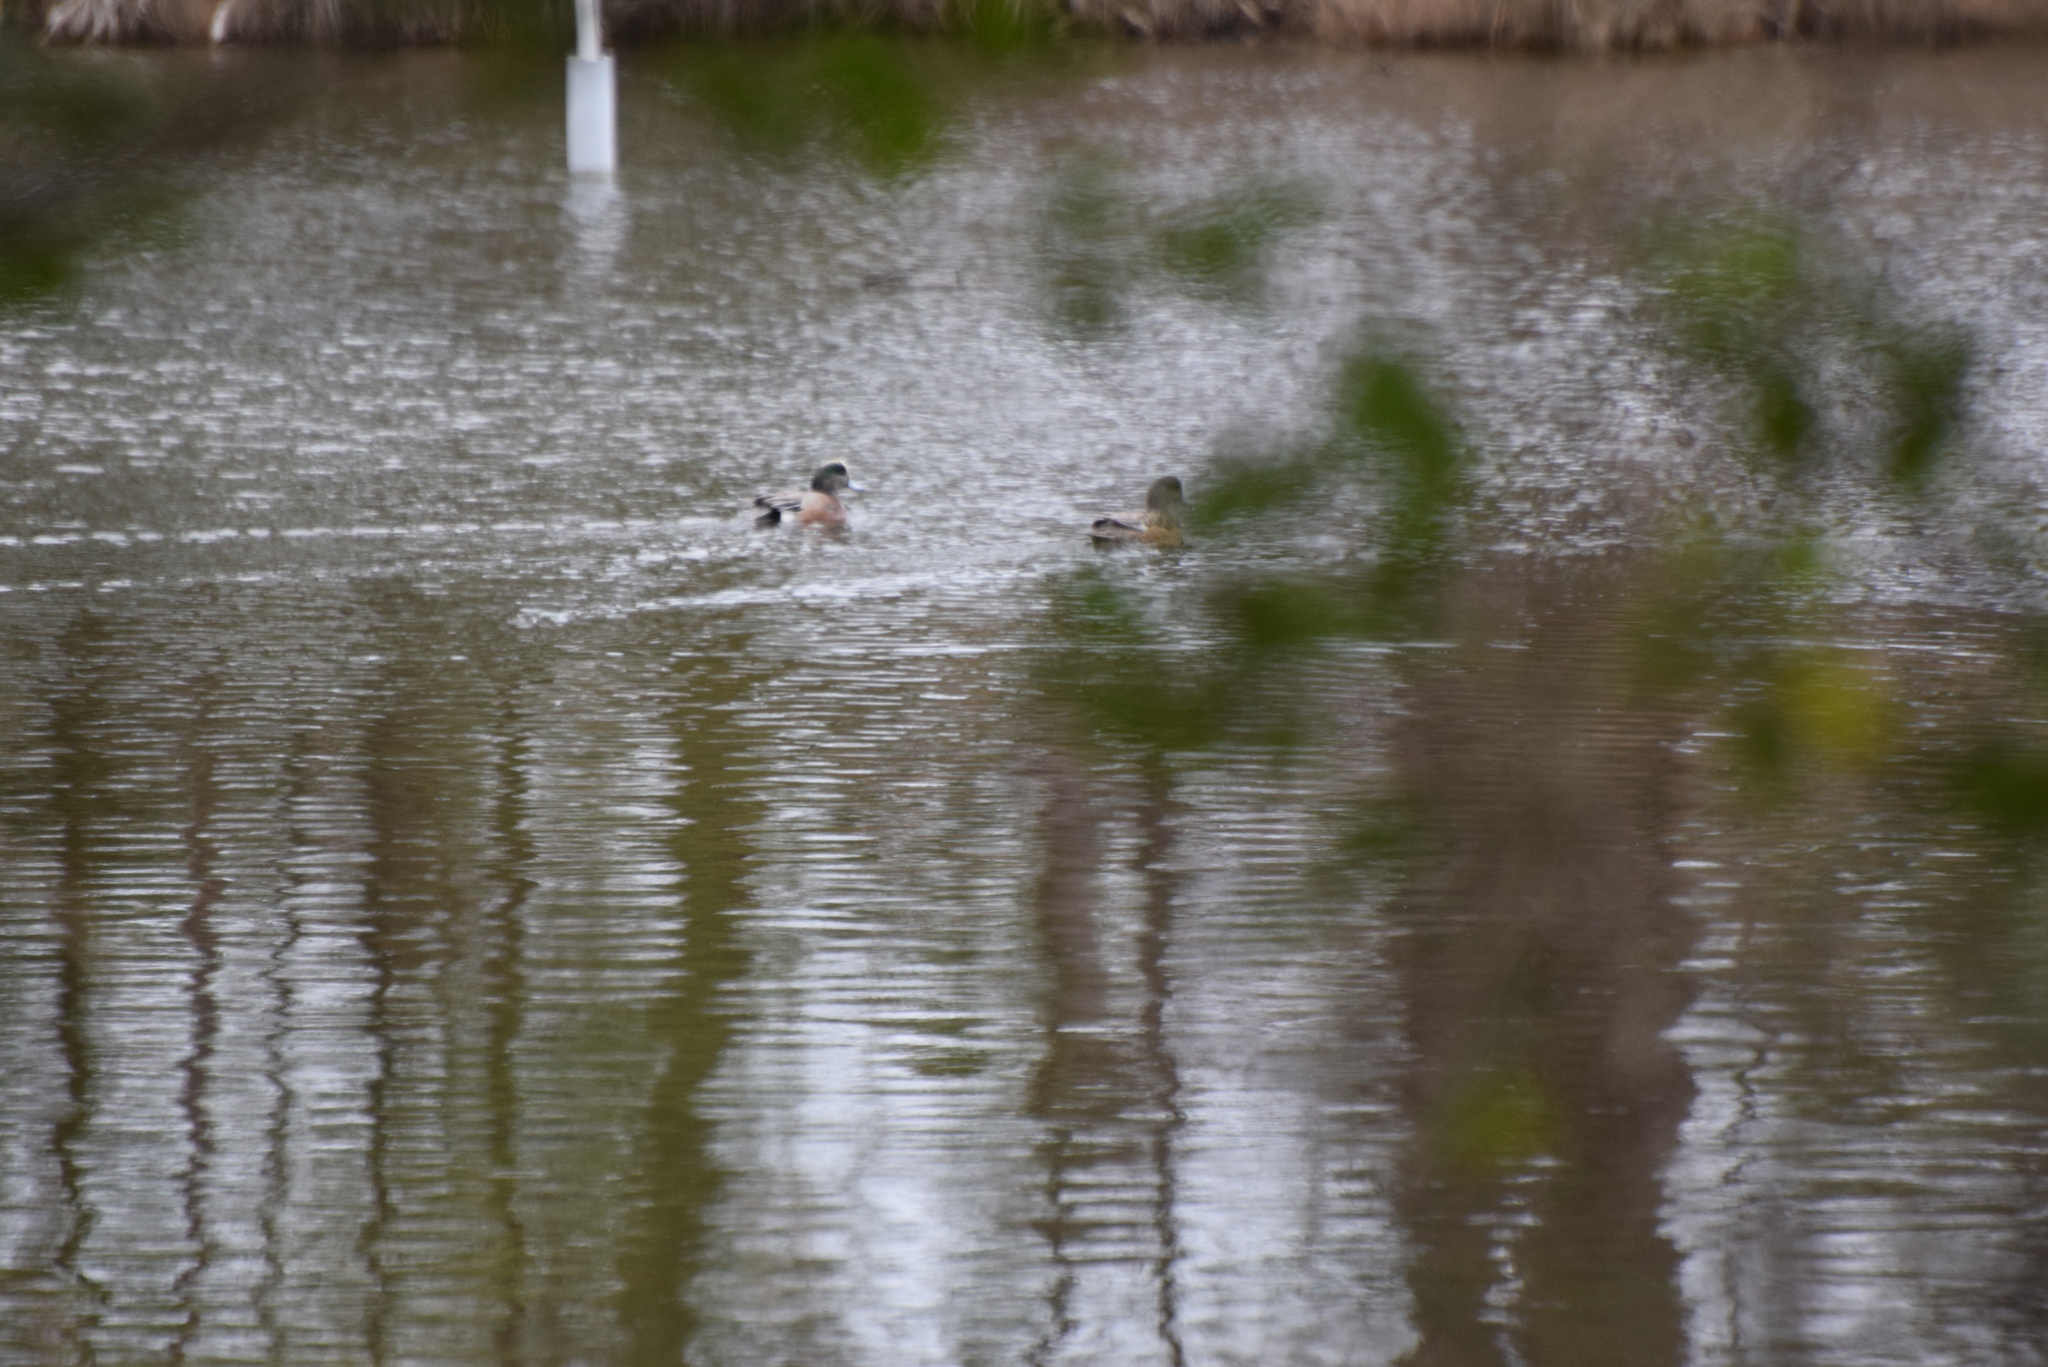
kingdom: Animalia
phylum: Chordata
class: Aves
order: Anseriformes
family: Anatidae
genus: Mareca
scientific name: Mareca americana
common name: American wigeon
